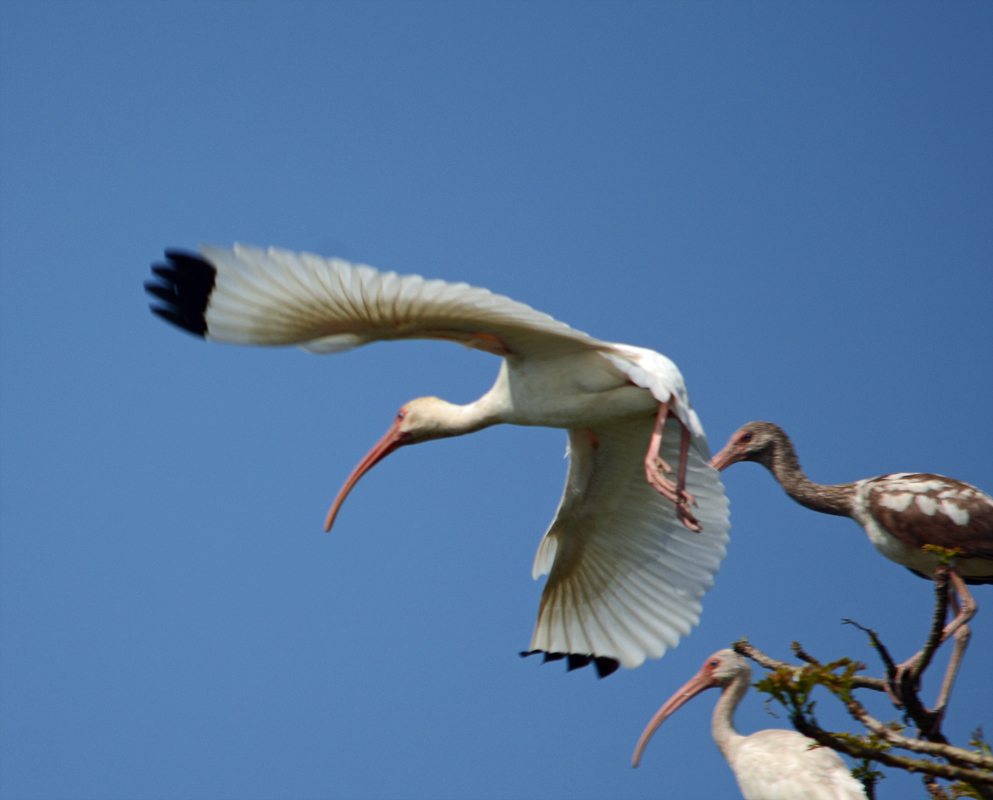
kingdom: Animalia
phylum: Chordata
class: Aves
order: Pelecaniformes
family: Threskiornithidae
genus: Eudocimus
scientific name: Eudocimus albus
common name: White ibis
